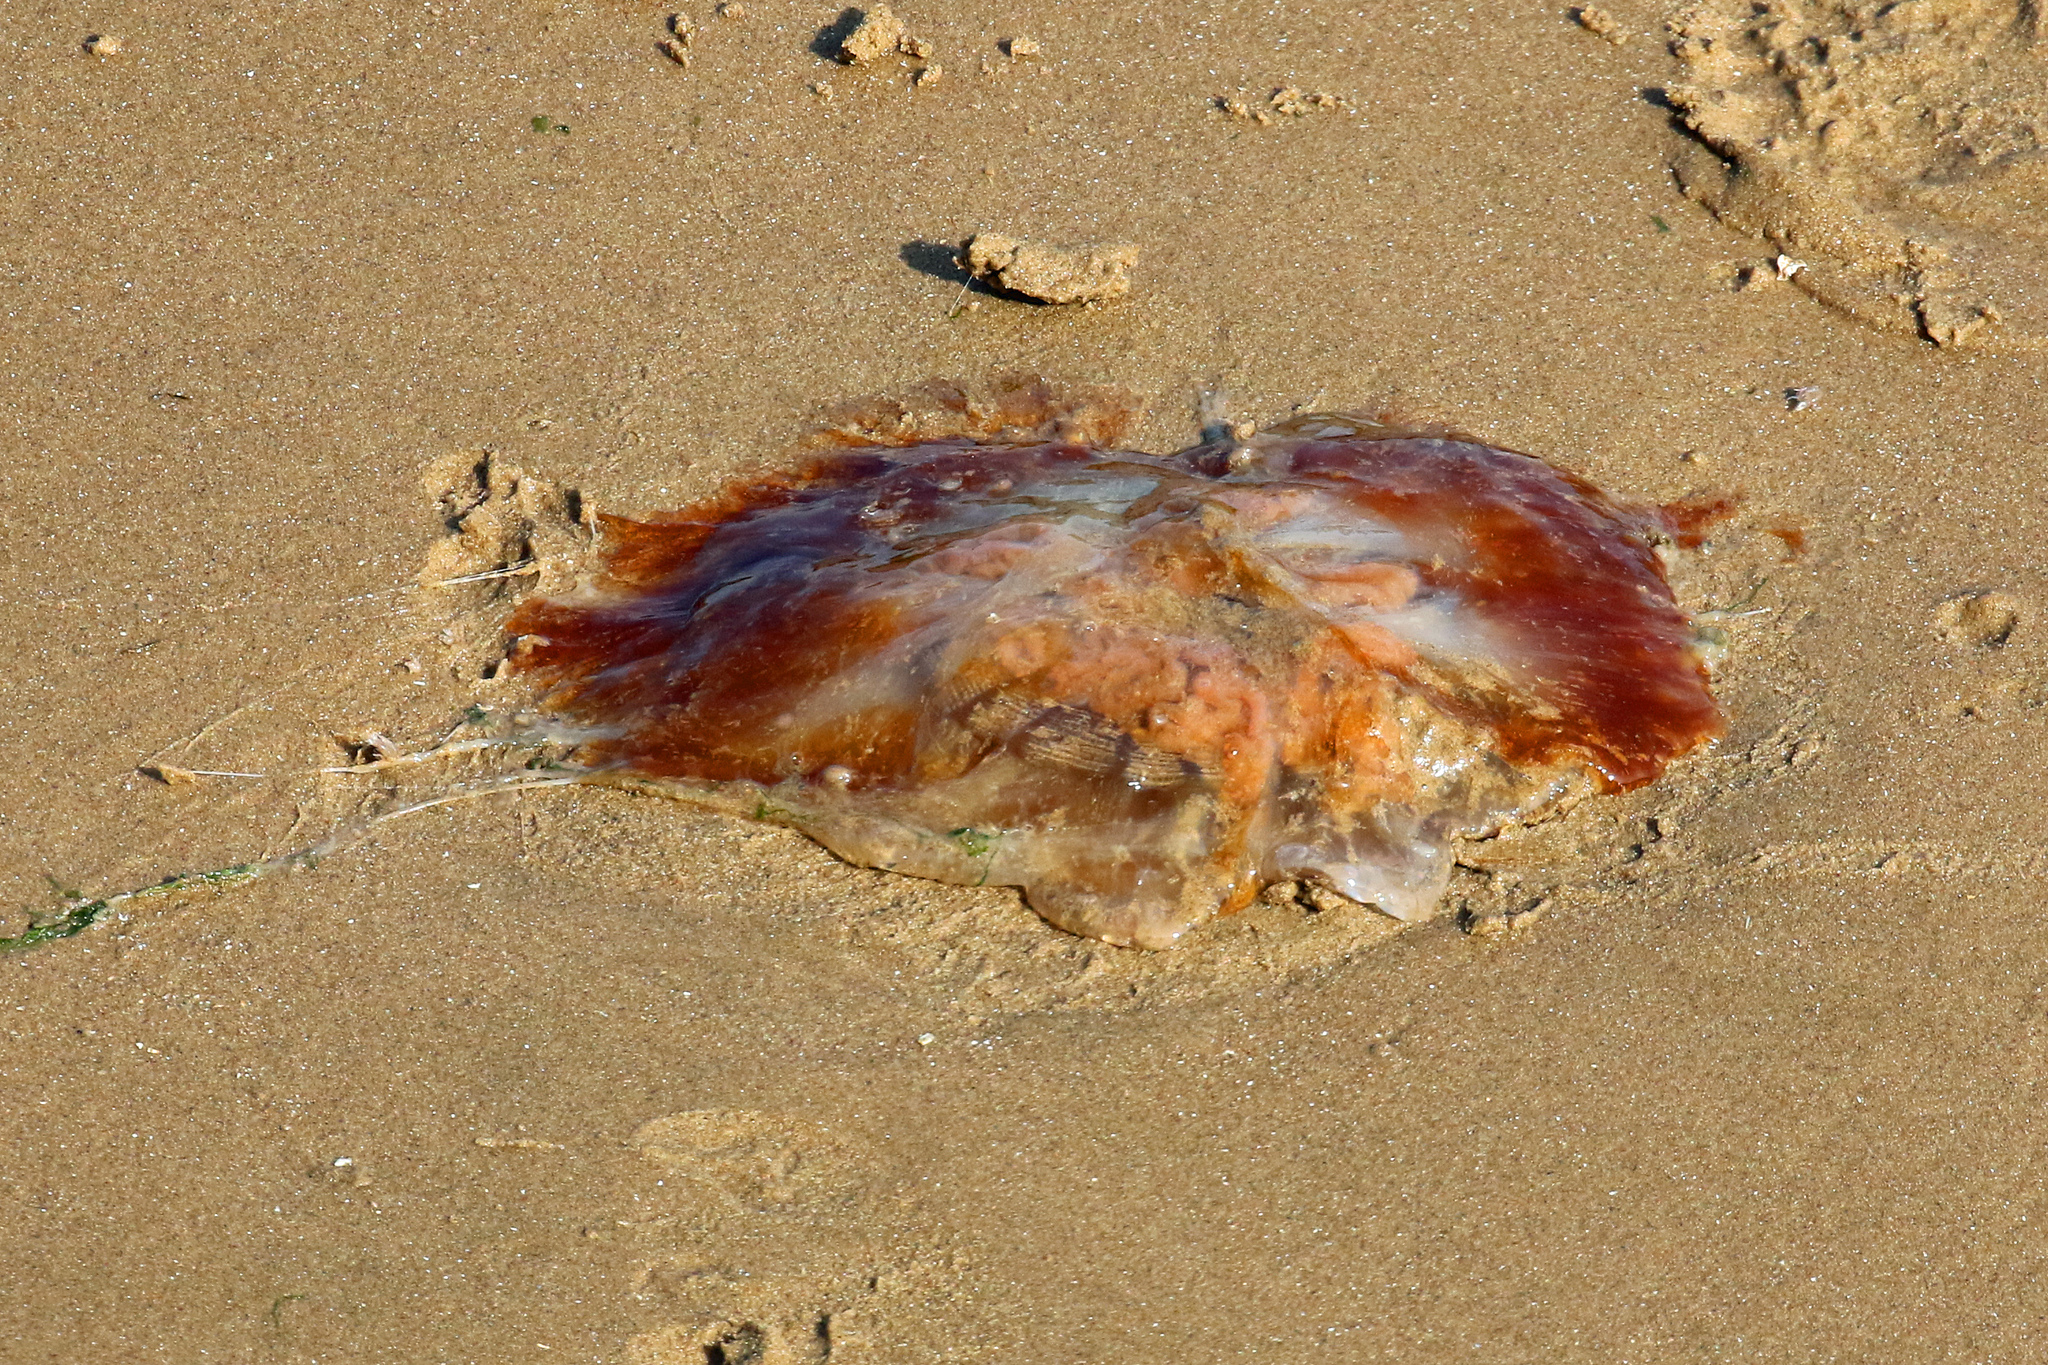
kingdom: Animalia
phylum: Cnidaria
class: Scyphozoa
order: Semaeostomeae
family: Cyaneidae
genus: Cyanea
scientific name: Cyanea capillata
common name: Lion's mane jellyfish
